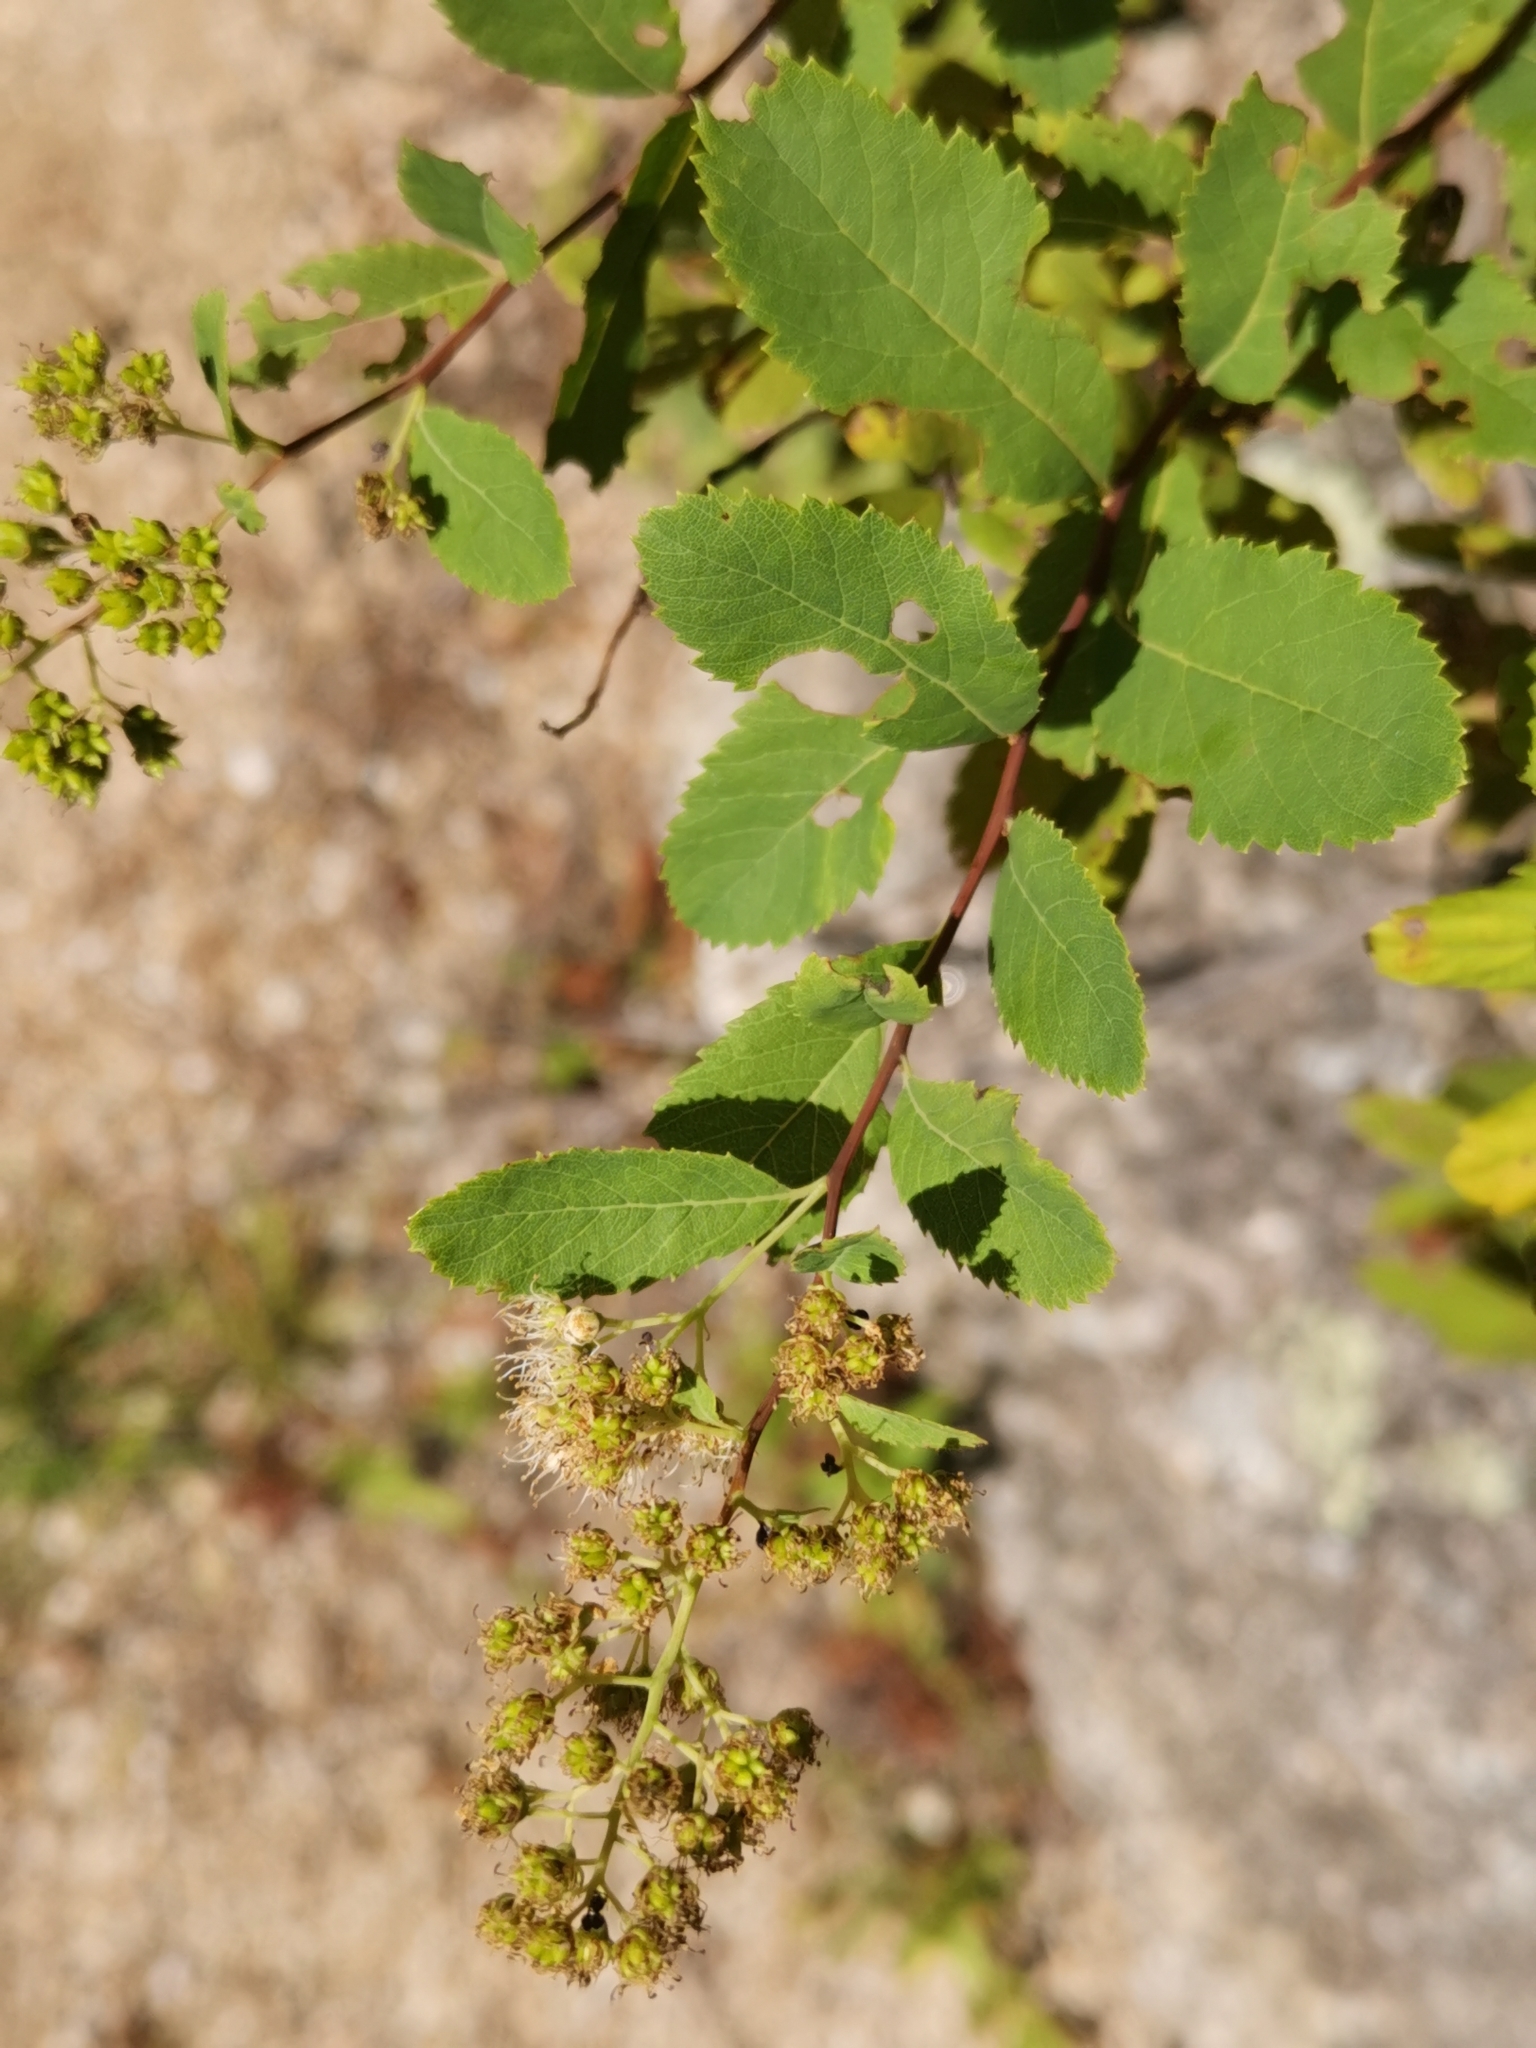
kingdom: Plantae
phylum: Tracheophyta
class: Magnoliopsida
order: Rosales
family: Rosaceae
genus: Spiraea
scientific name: Spiraea alba
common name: Pale bridewort
